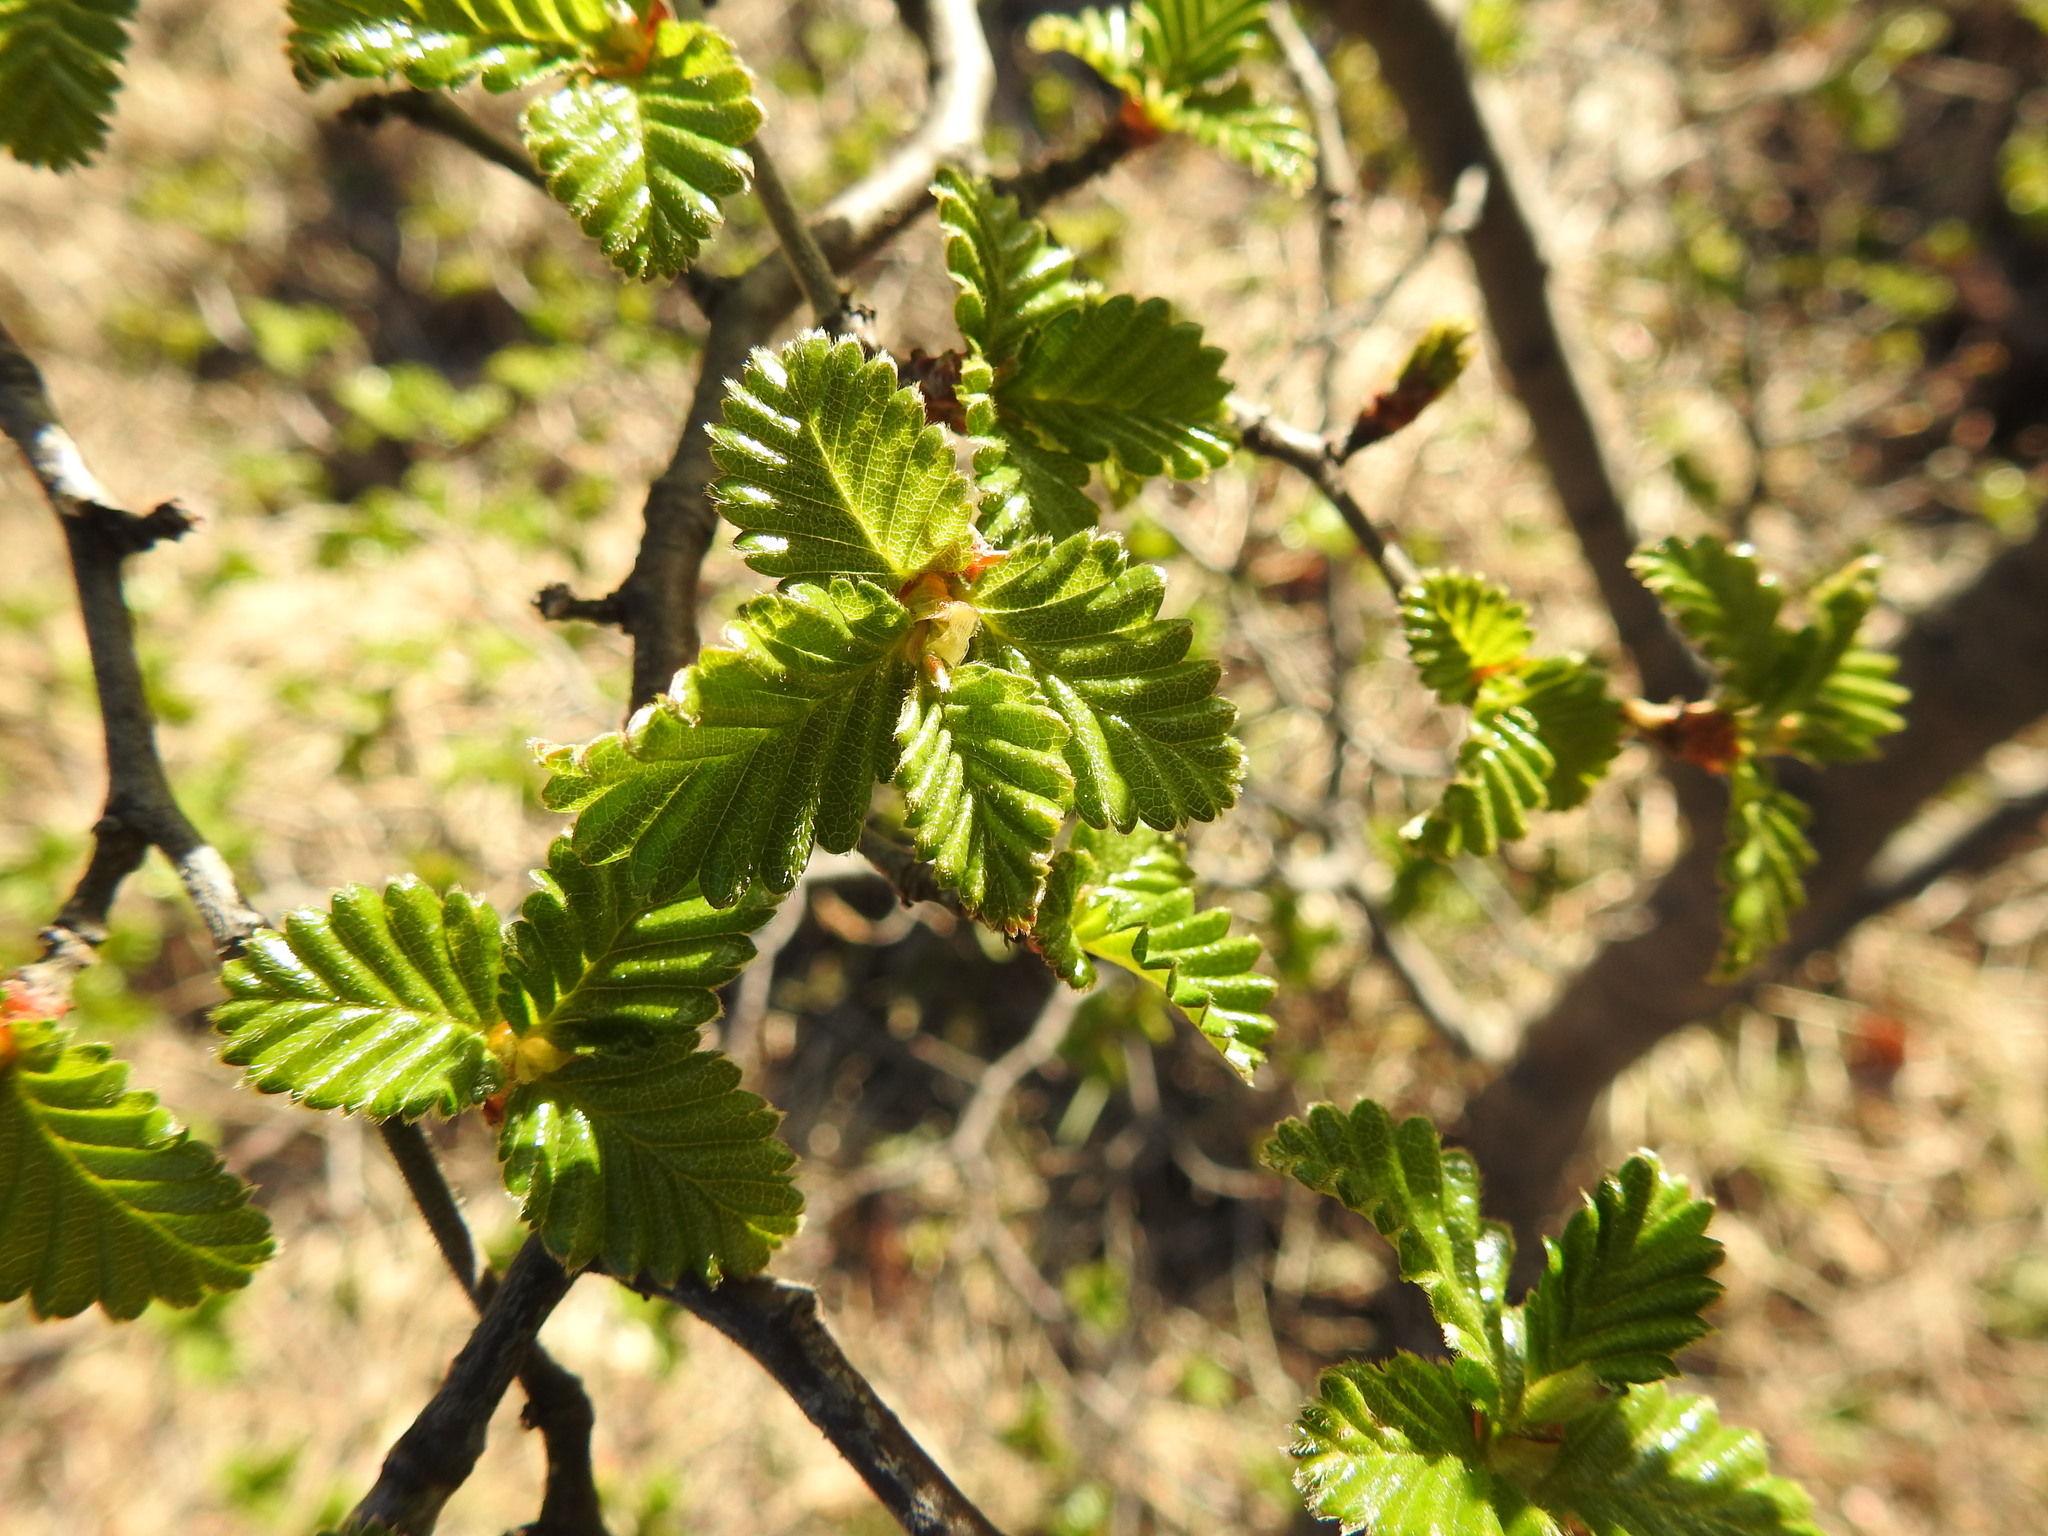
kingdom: Plantae
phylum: Tracheophyta
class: Magnoliopsida
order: Fagales
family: Nothofagaceae
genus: Nothofagus
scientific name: Nothofagus pumilio
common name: Lenga beech
